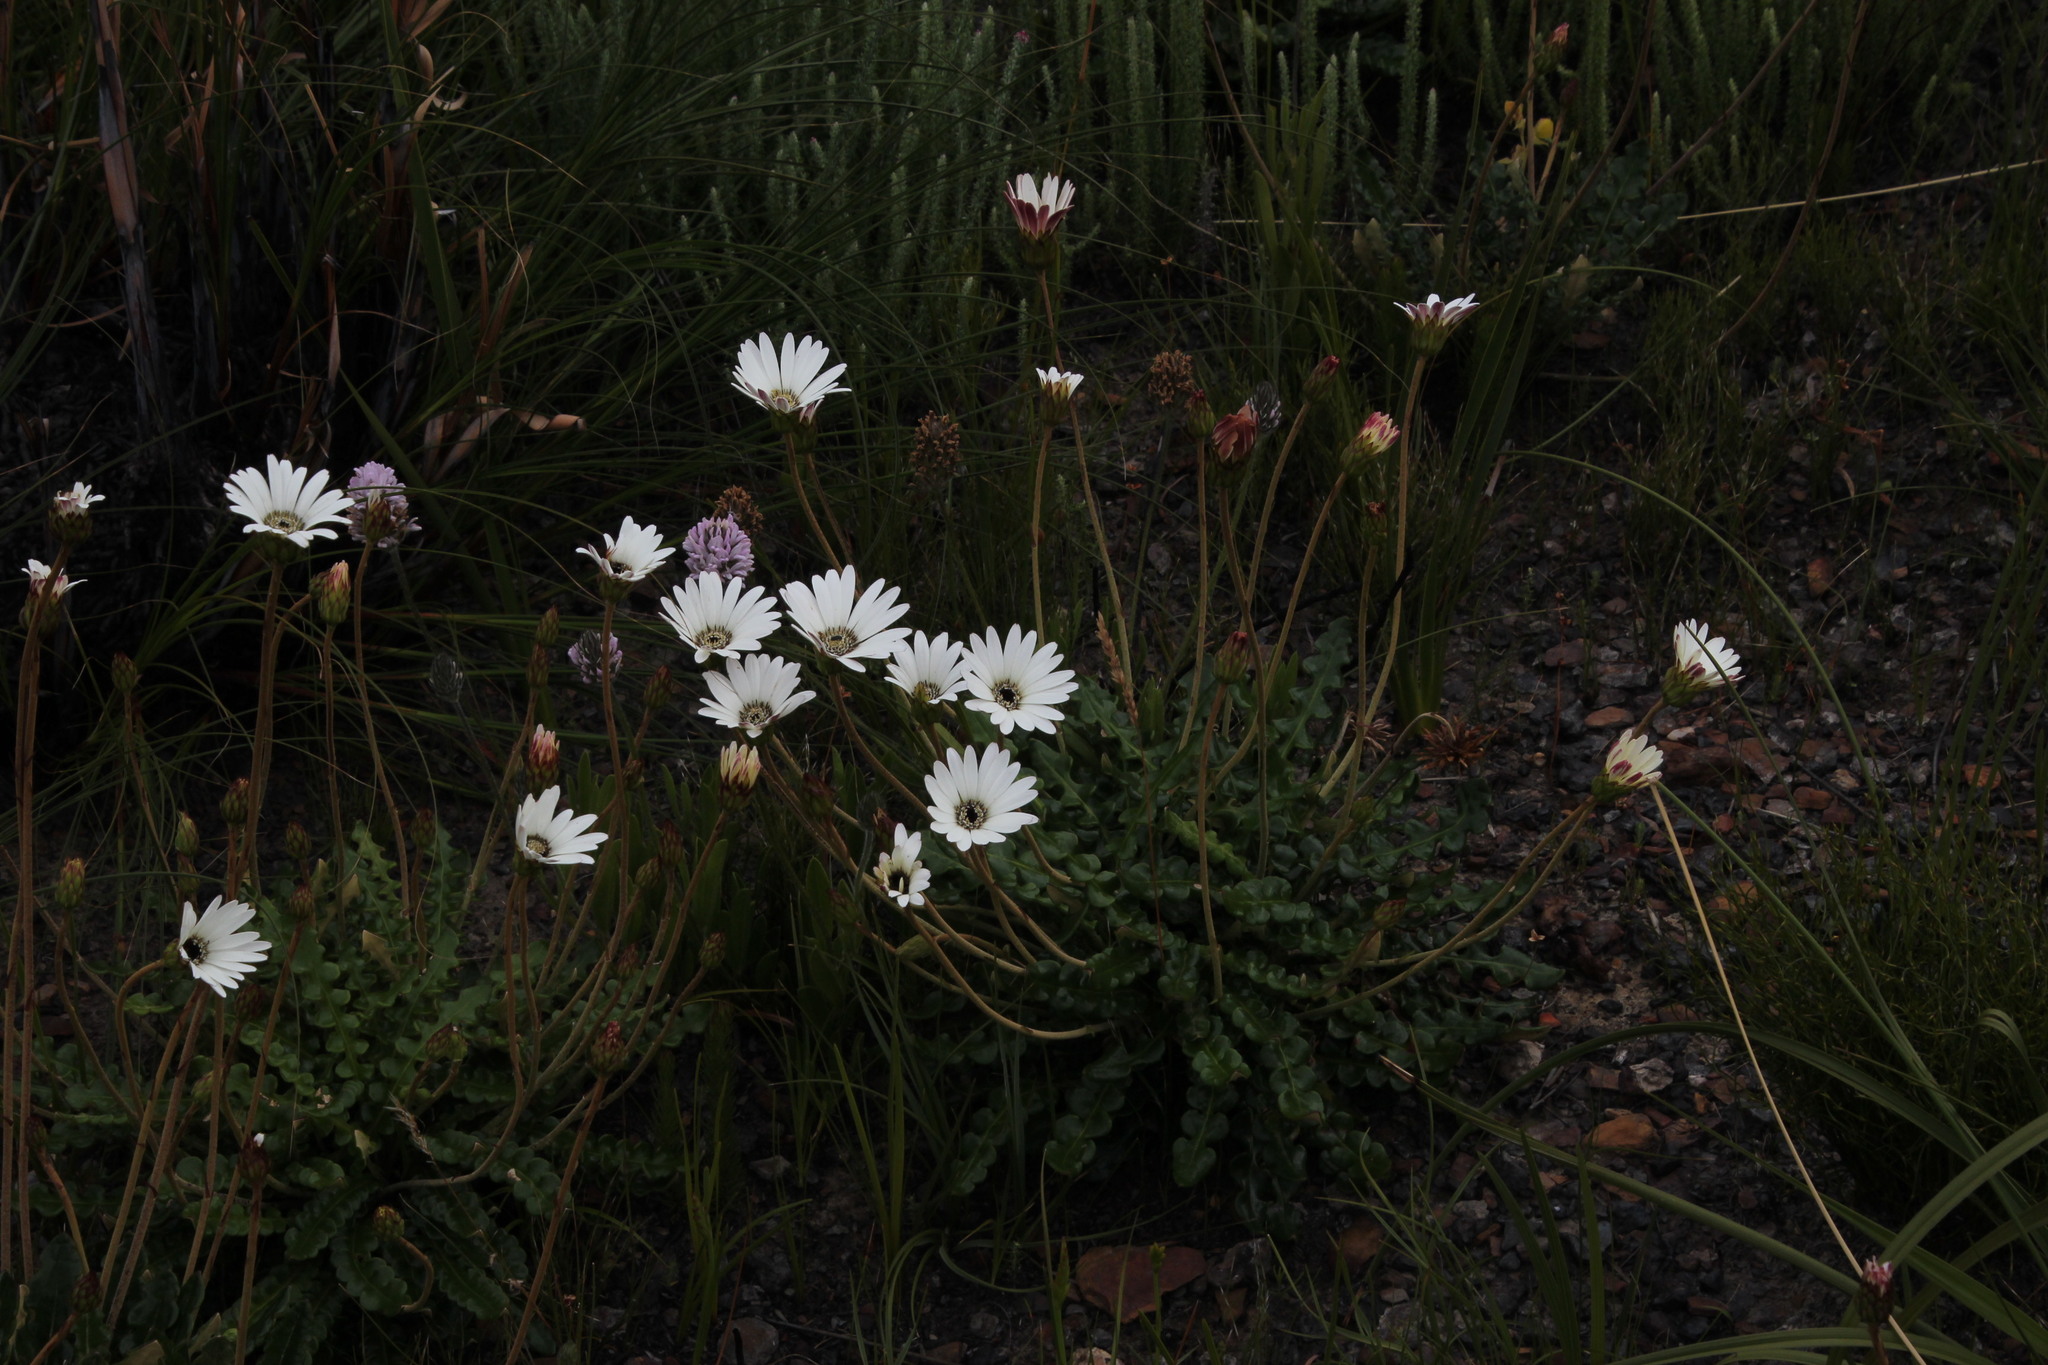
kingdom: Plantae
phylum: Tracheophyta
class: Magnoliopsida
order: Asterales
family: Asteraceae
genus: Gerbera
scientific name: Gerbera linnaei
